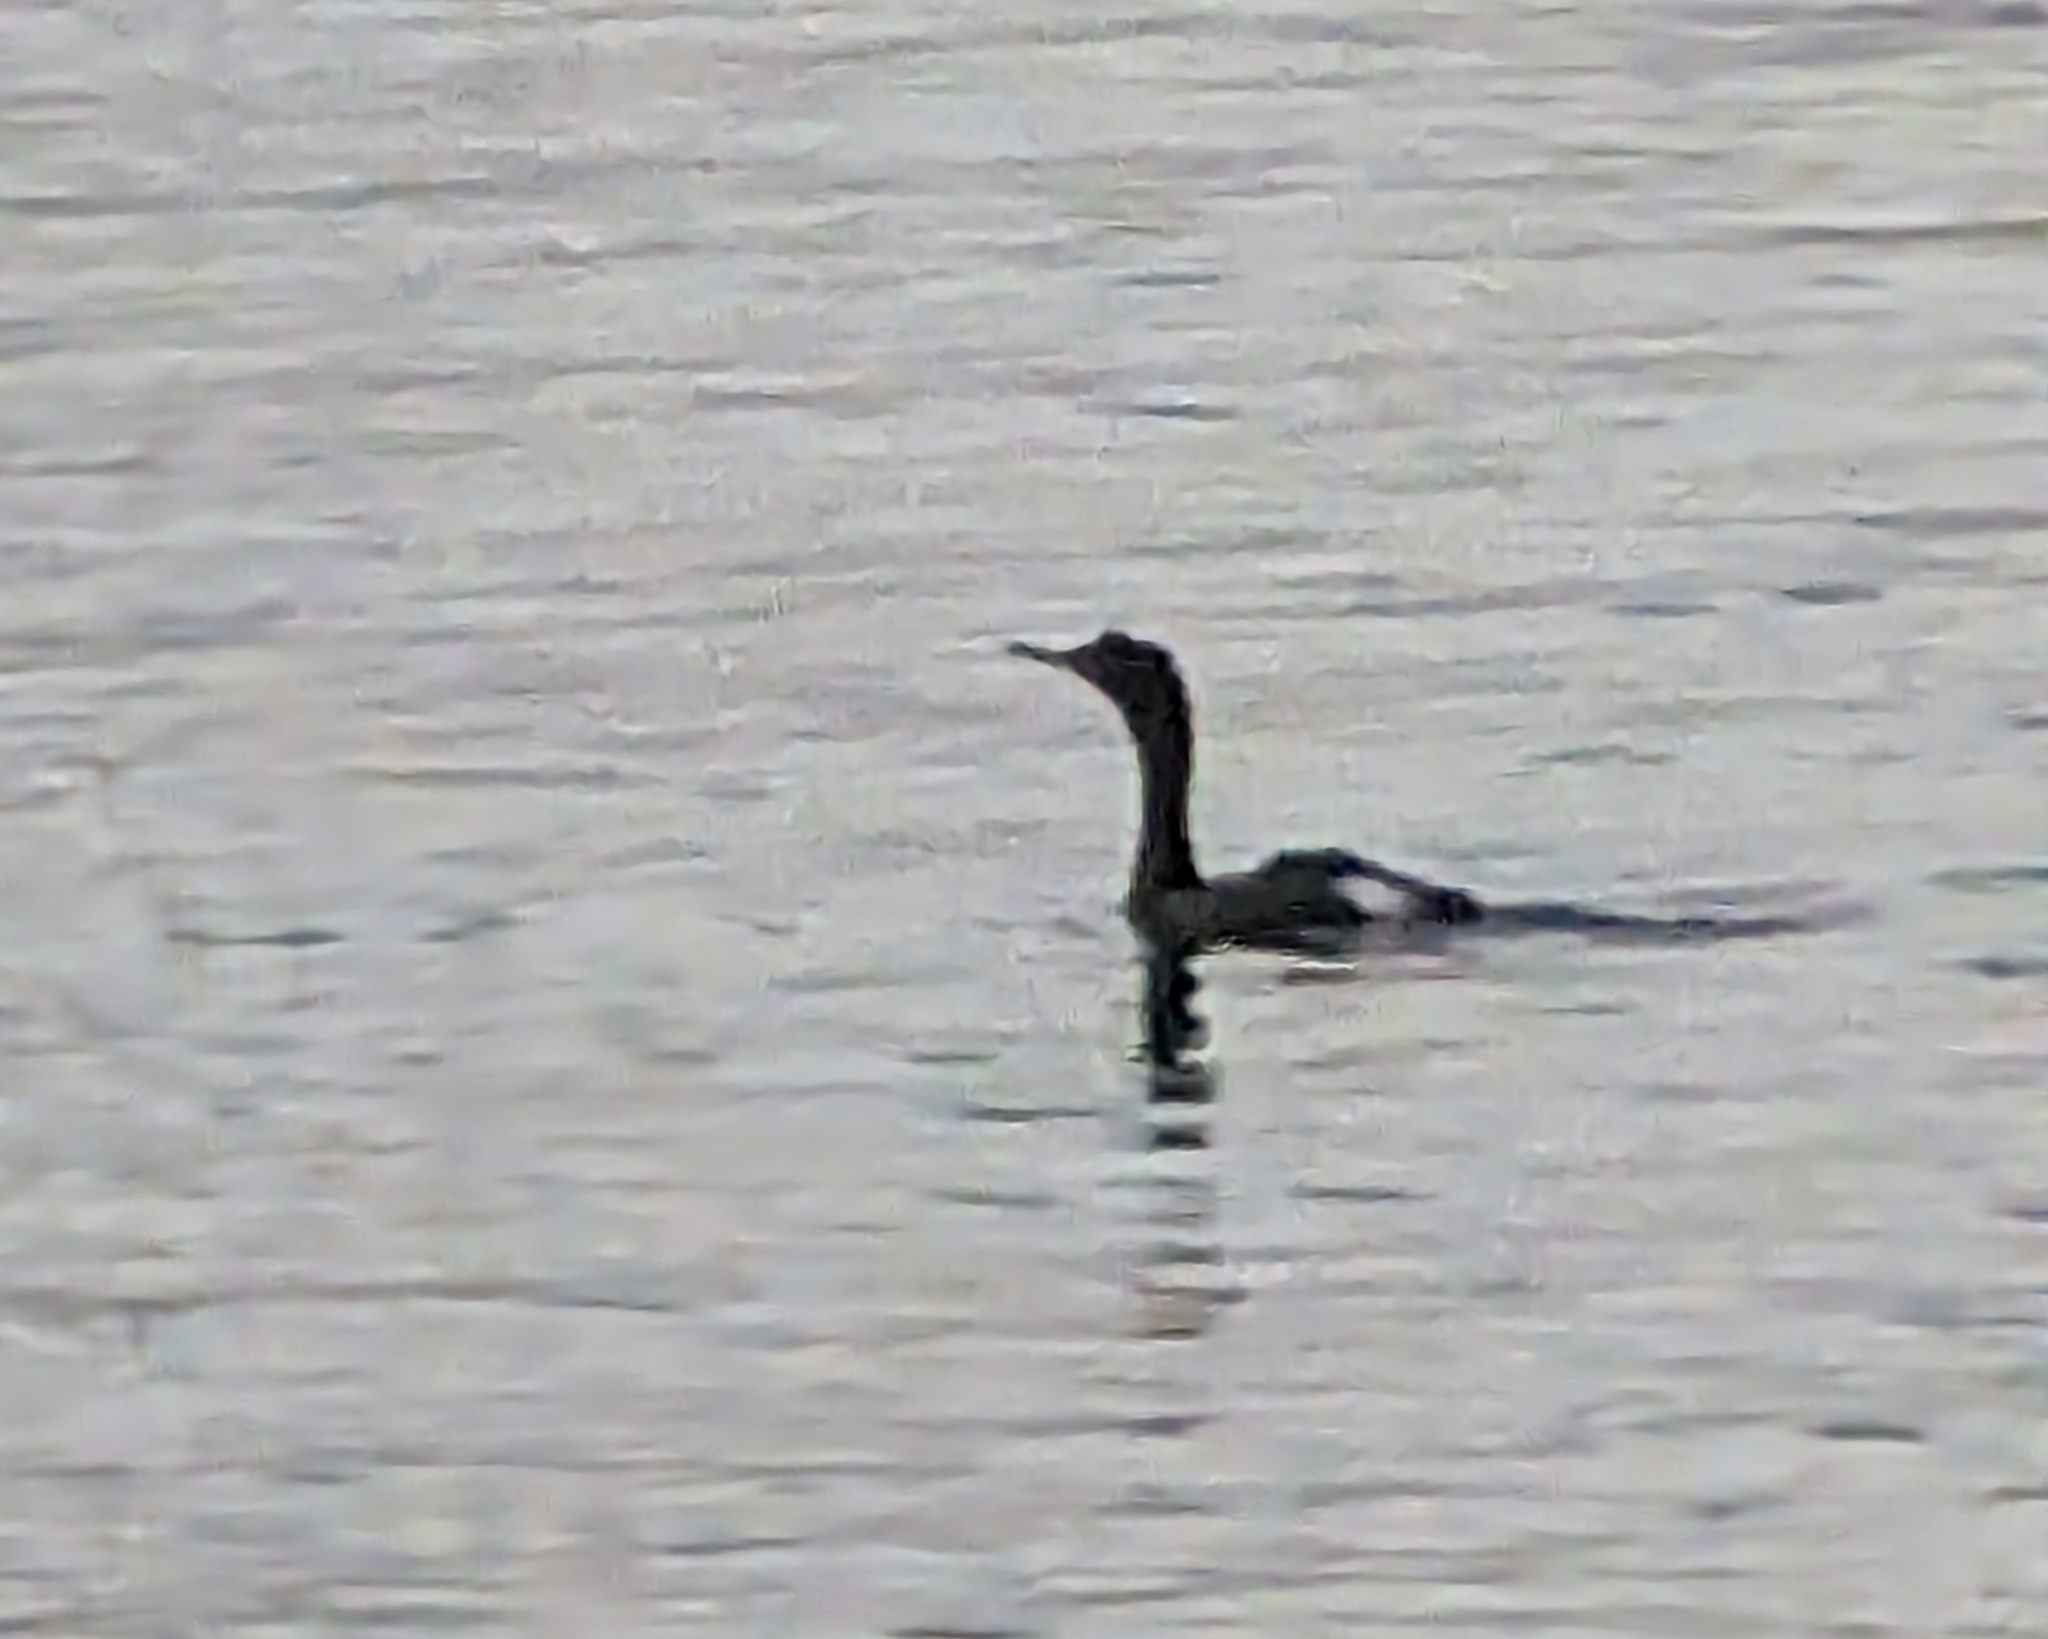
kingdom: Animalia
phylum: Chordata
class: Aves
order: Suliformes
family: Phalacrocoracidae
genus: Phalacrocorax
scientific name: Phalacrocorax pelagicus
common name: Pelagic cormorant
